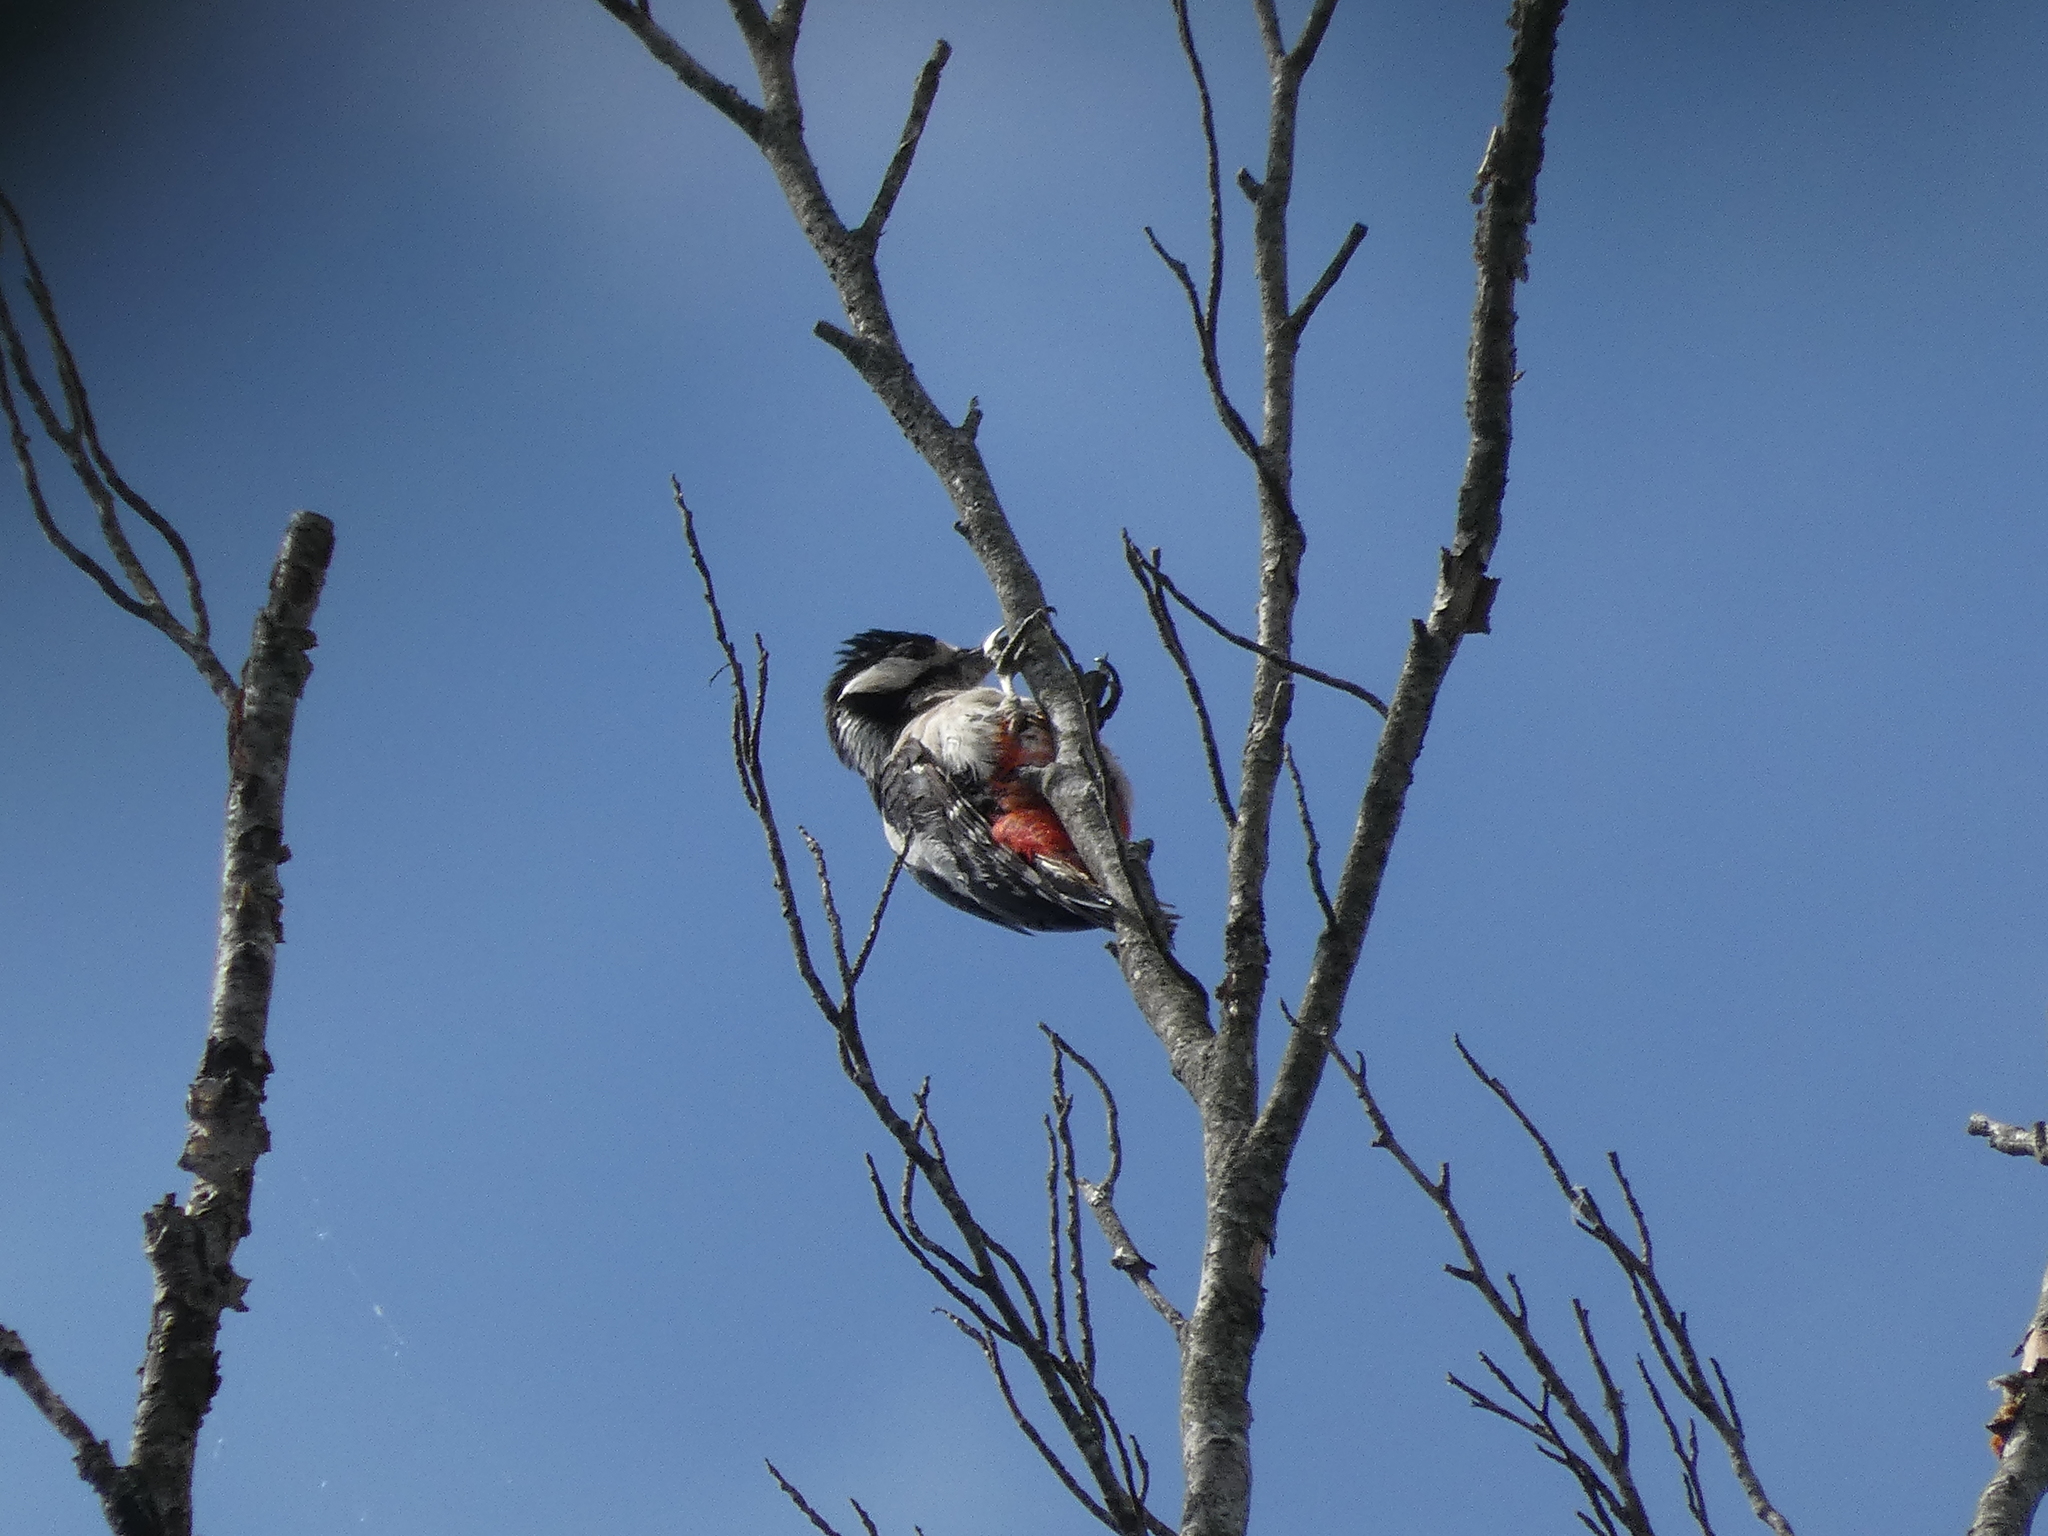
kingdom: Animalia
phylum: Chordata
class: Aves
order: Piciformes
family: Picidae
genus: Dendrocopos
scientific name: Dendrocopos major
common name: Great spotted woodpecker
